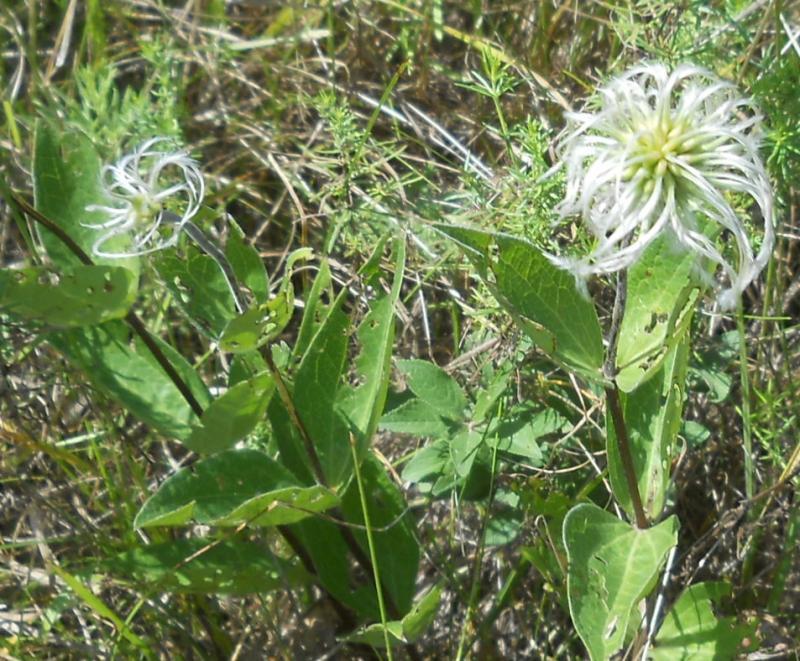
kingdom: Plantae
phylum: Tracheophyta
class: Magnoliopsida
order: Ranunculales
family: Ranunculaceae
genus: Clematis
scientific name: Clematis integrifolia
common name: Solitary clematis
